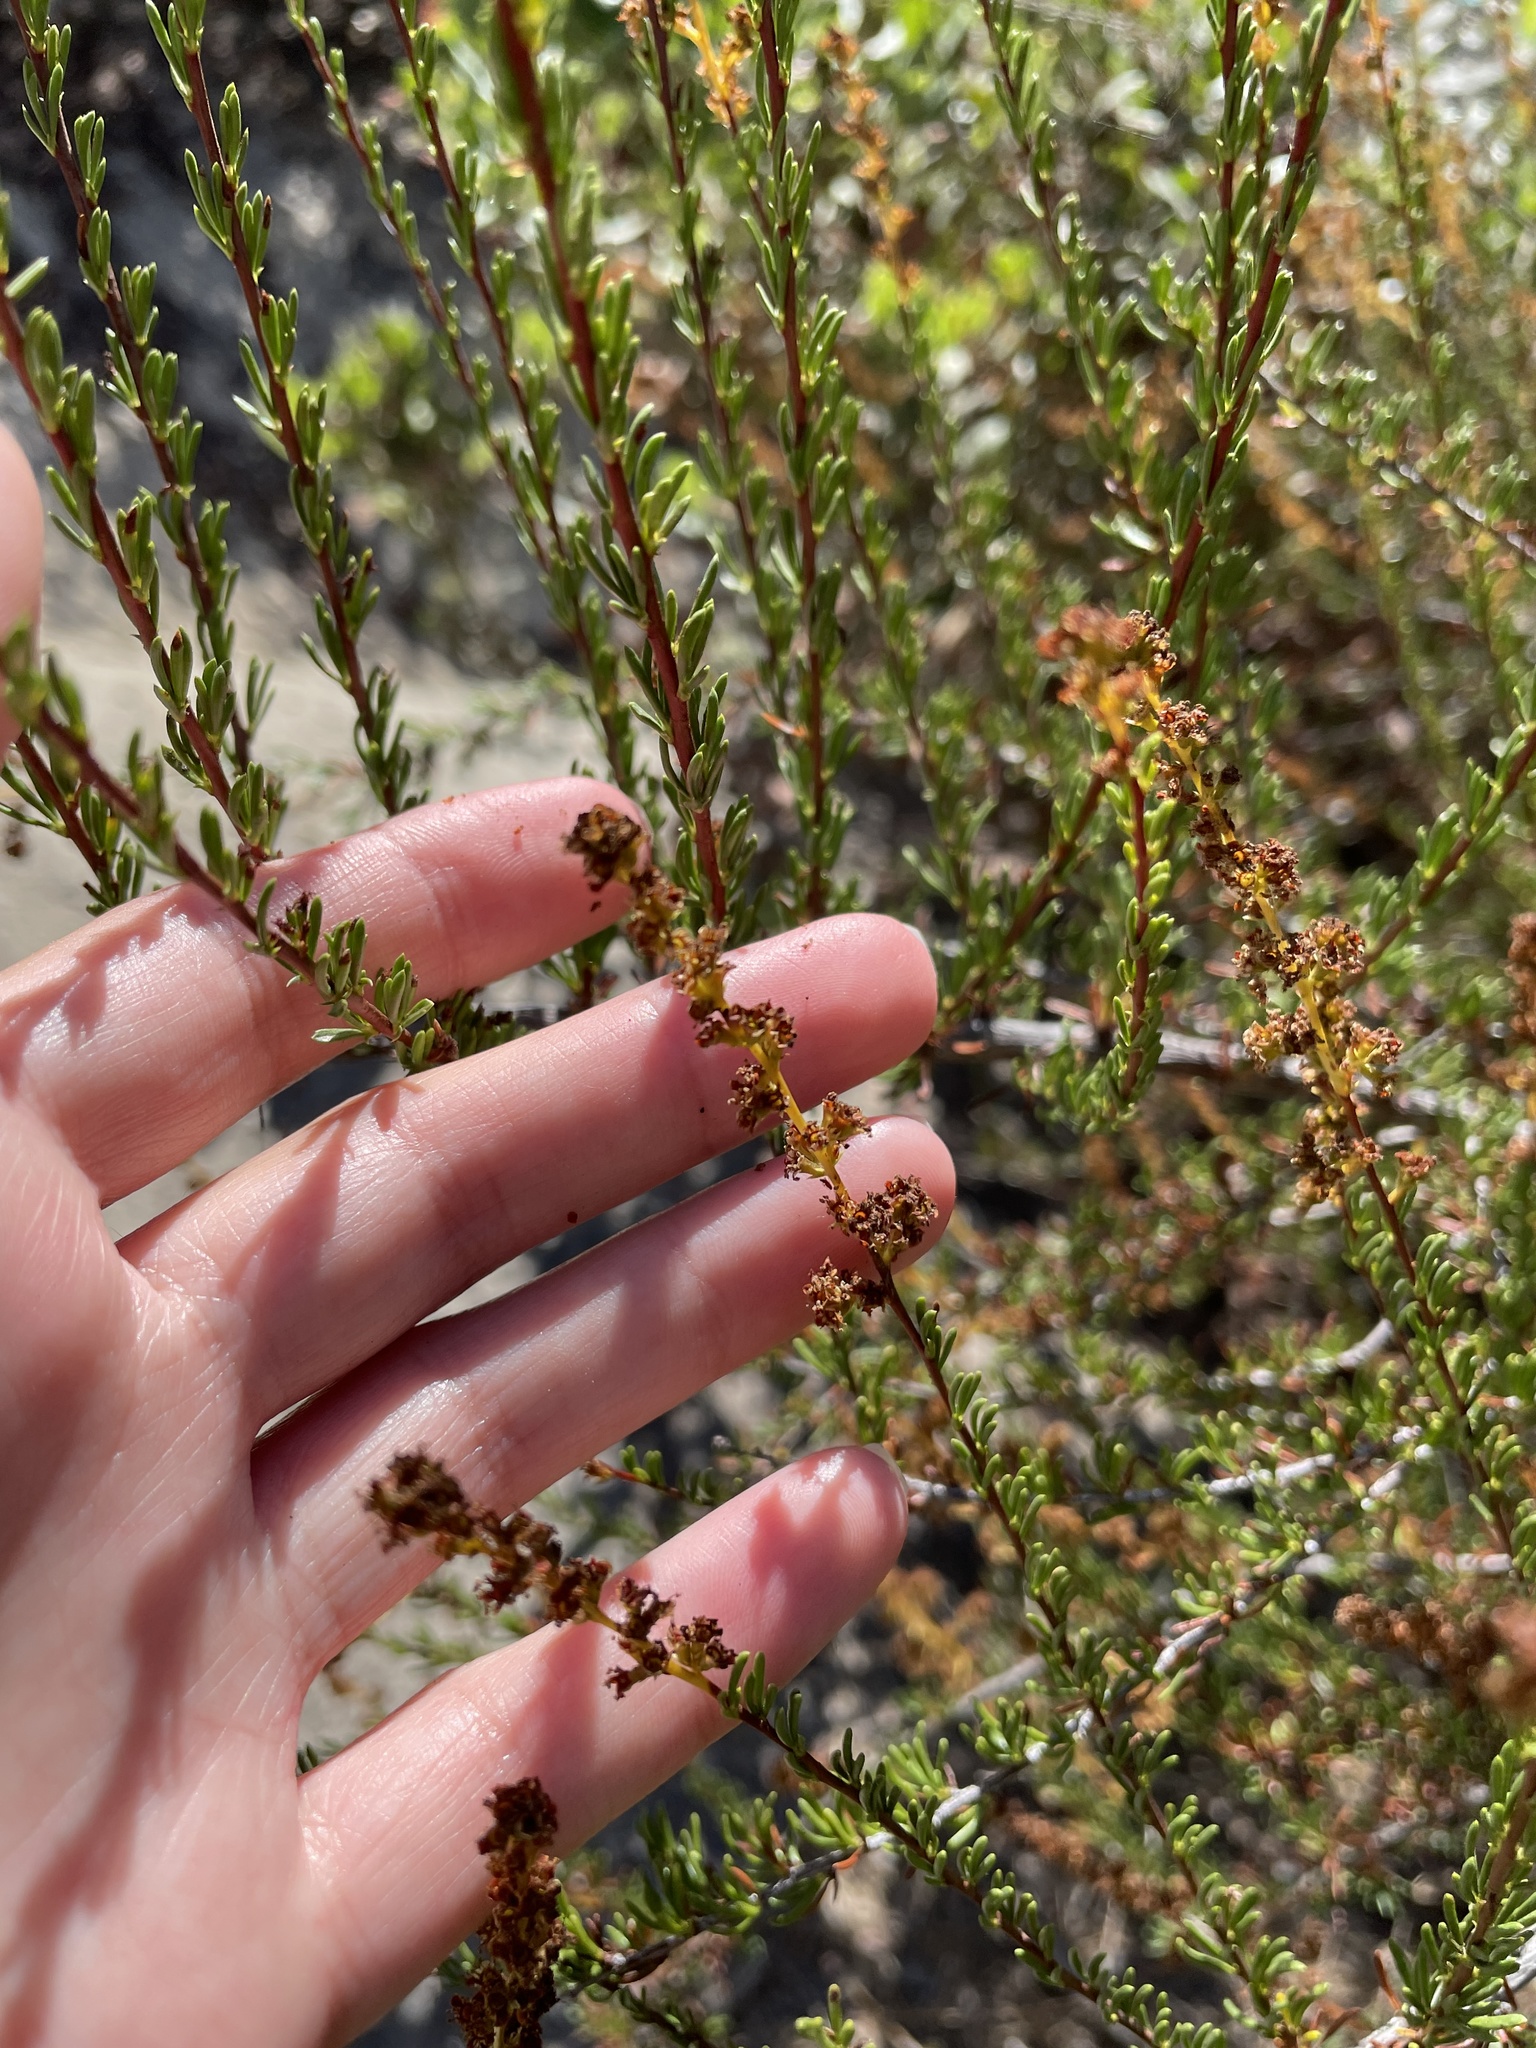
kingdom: Plantae
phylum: Tracheophyta
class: Magnoliopsida
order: Rosales
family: Rosaceae
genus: Adenostoma
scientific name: Adenostoma fasciculatum
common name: Chamise
